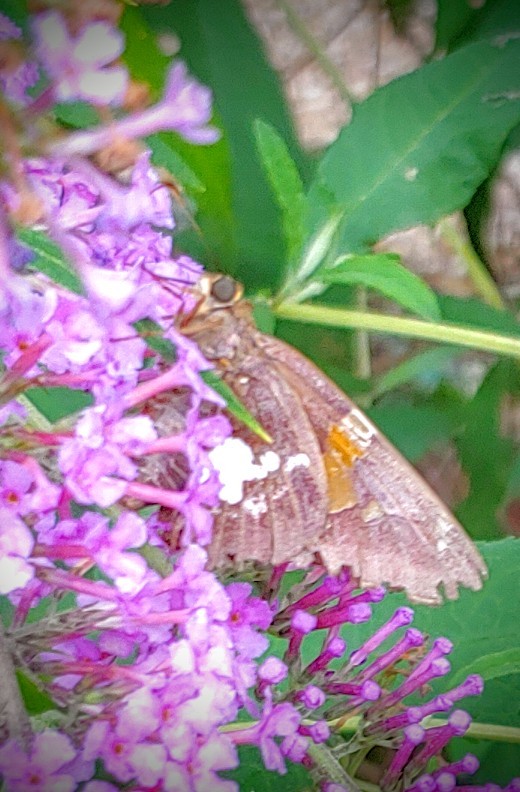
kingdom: Animalia
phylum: Arthropoda
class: Insecta
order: Lepidoptera
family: Hesperiidae
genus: Epargyreus
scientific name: Epargyreus clarus
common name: Silver-spotted skipper
